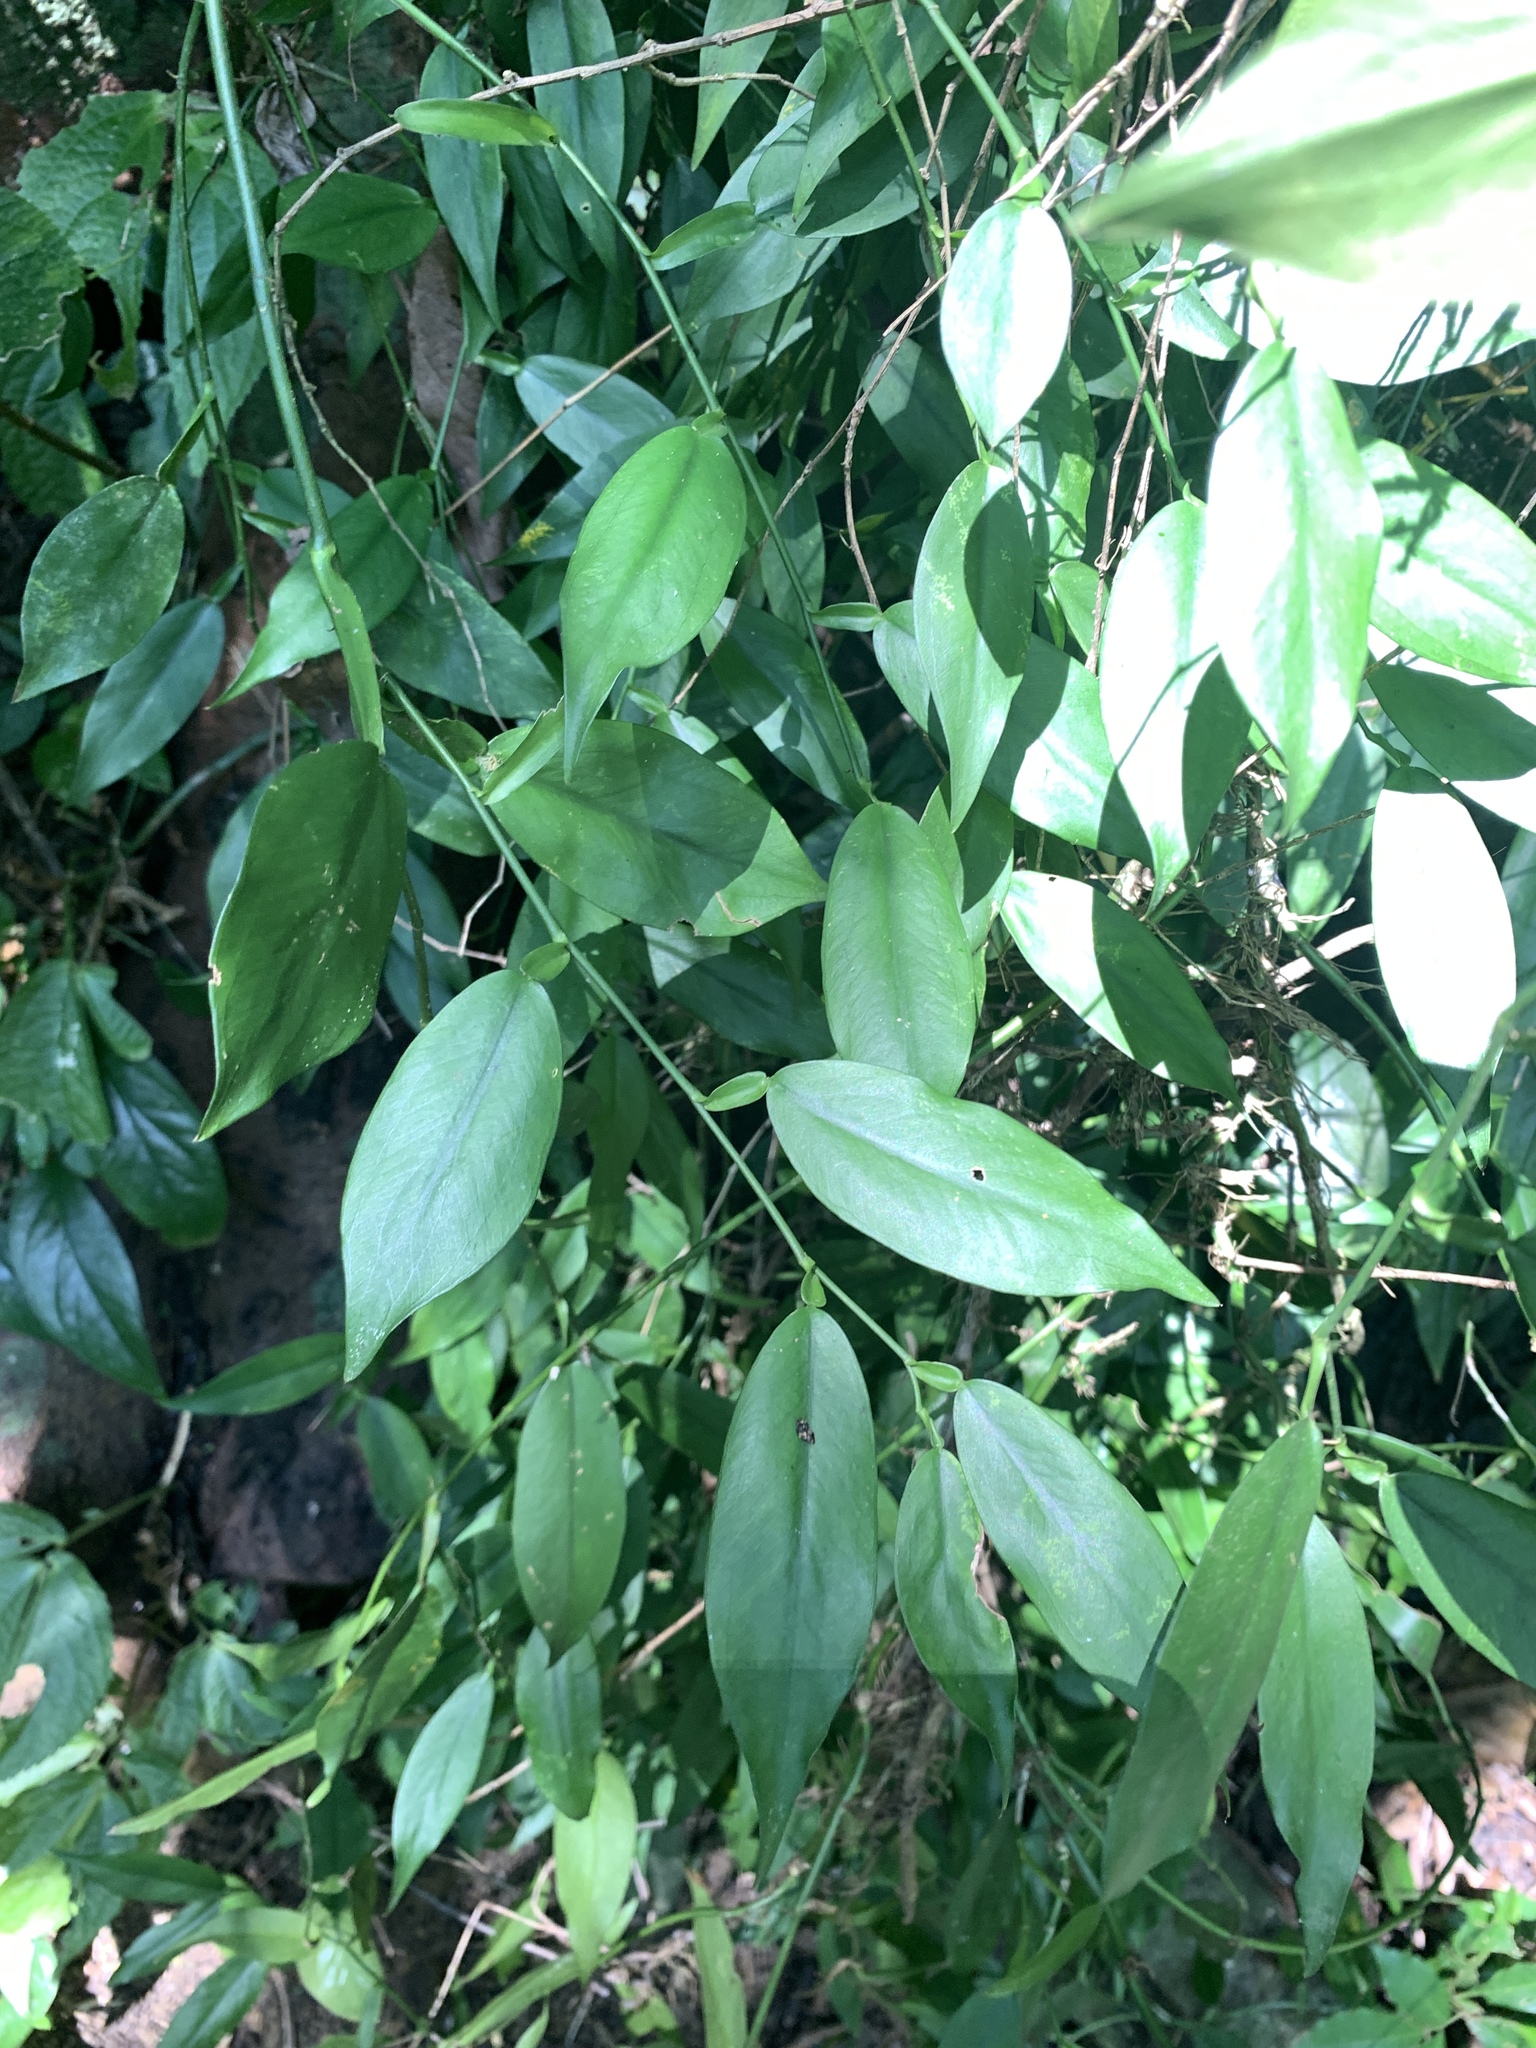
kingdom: Plantae
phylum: Tracheophyta
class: Liliopsida
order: Alismatales
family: Araceae
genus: Pothos
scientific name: Pothos chinensis
